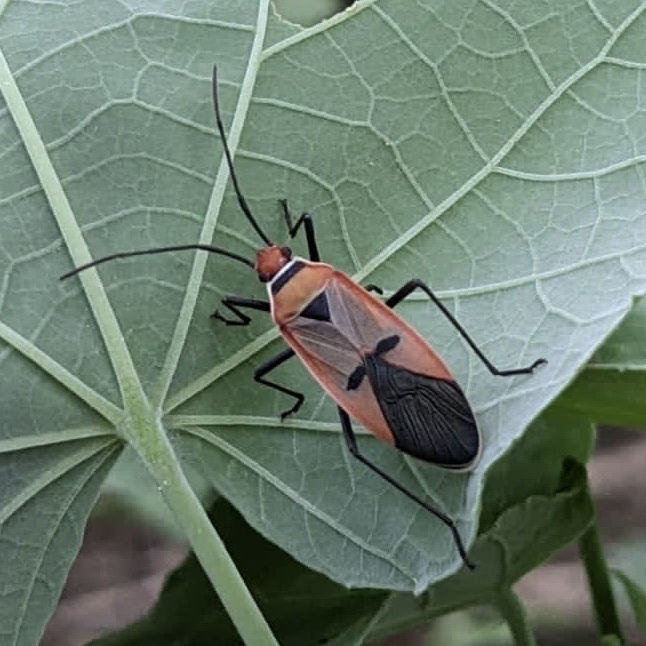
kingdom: Animalia
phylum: Arthropoda
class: Insecta
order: Hemiptera
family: Pyrrhocoridae
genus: Dysdercus
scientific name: Dysdercus
